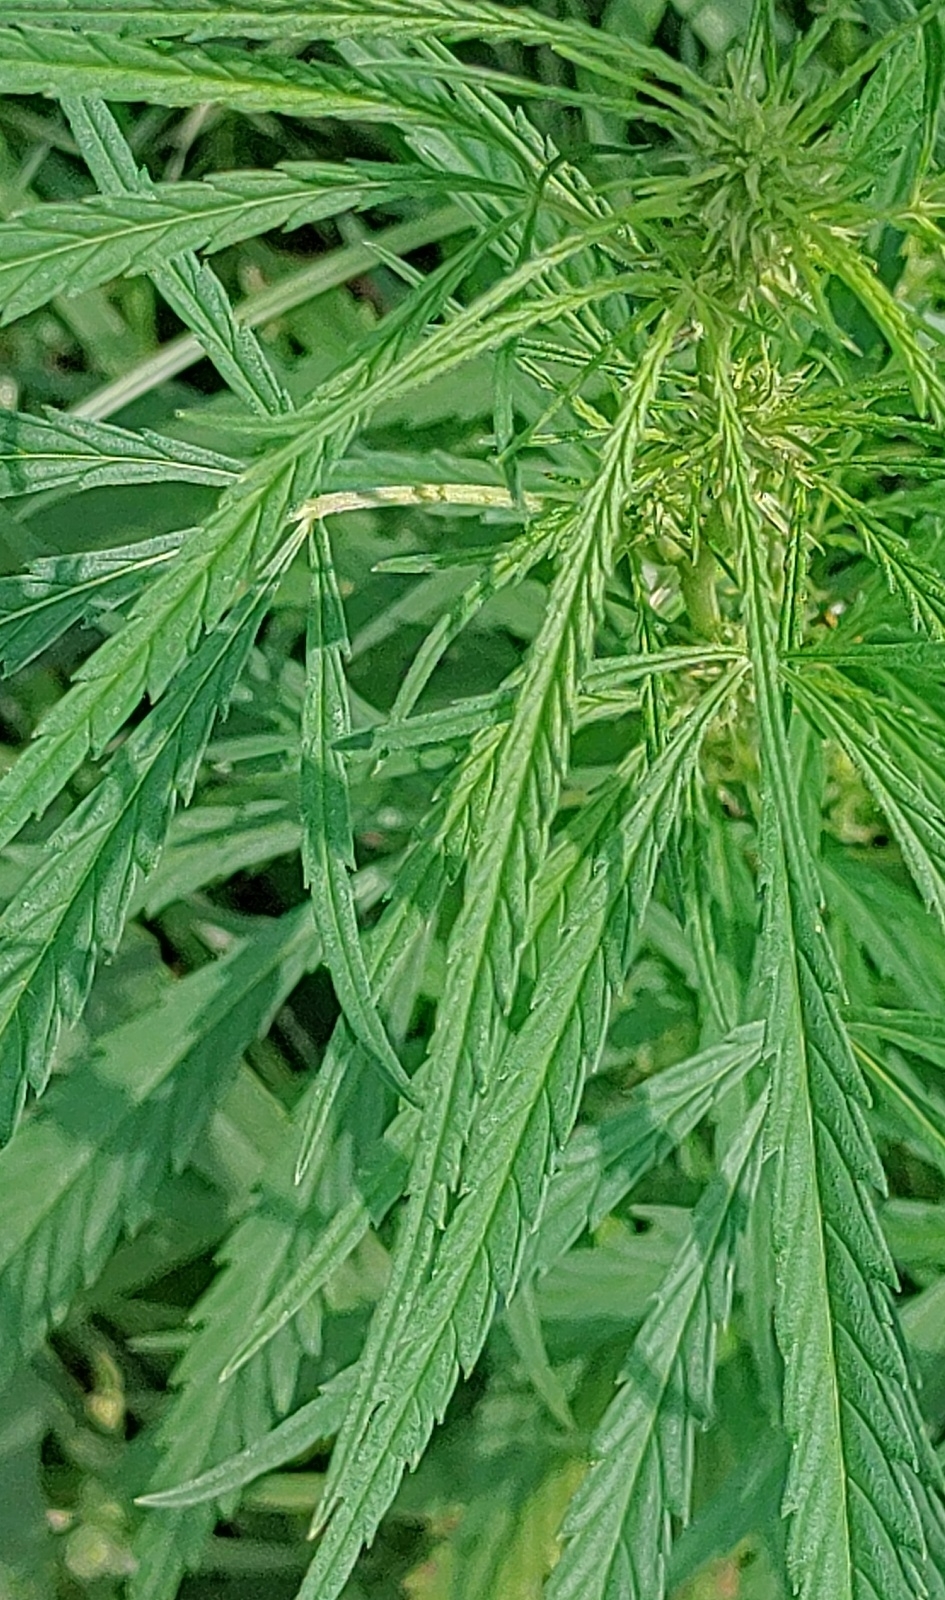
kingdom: Plantae
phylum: Tracheophyta
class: Magnoliopsida
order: Rosales
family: Cannabaceae
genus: Cannabis
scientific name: Cannabis sativa
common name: Hemp
